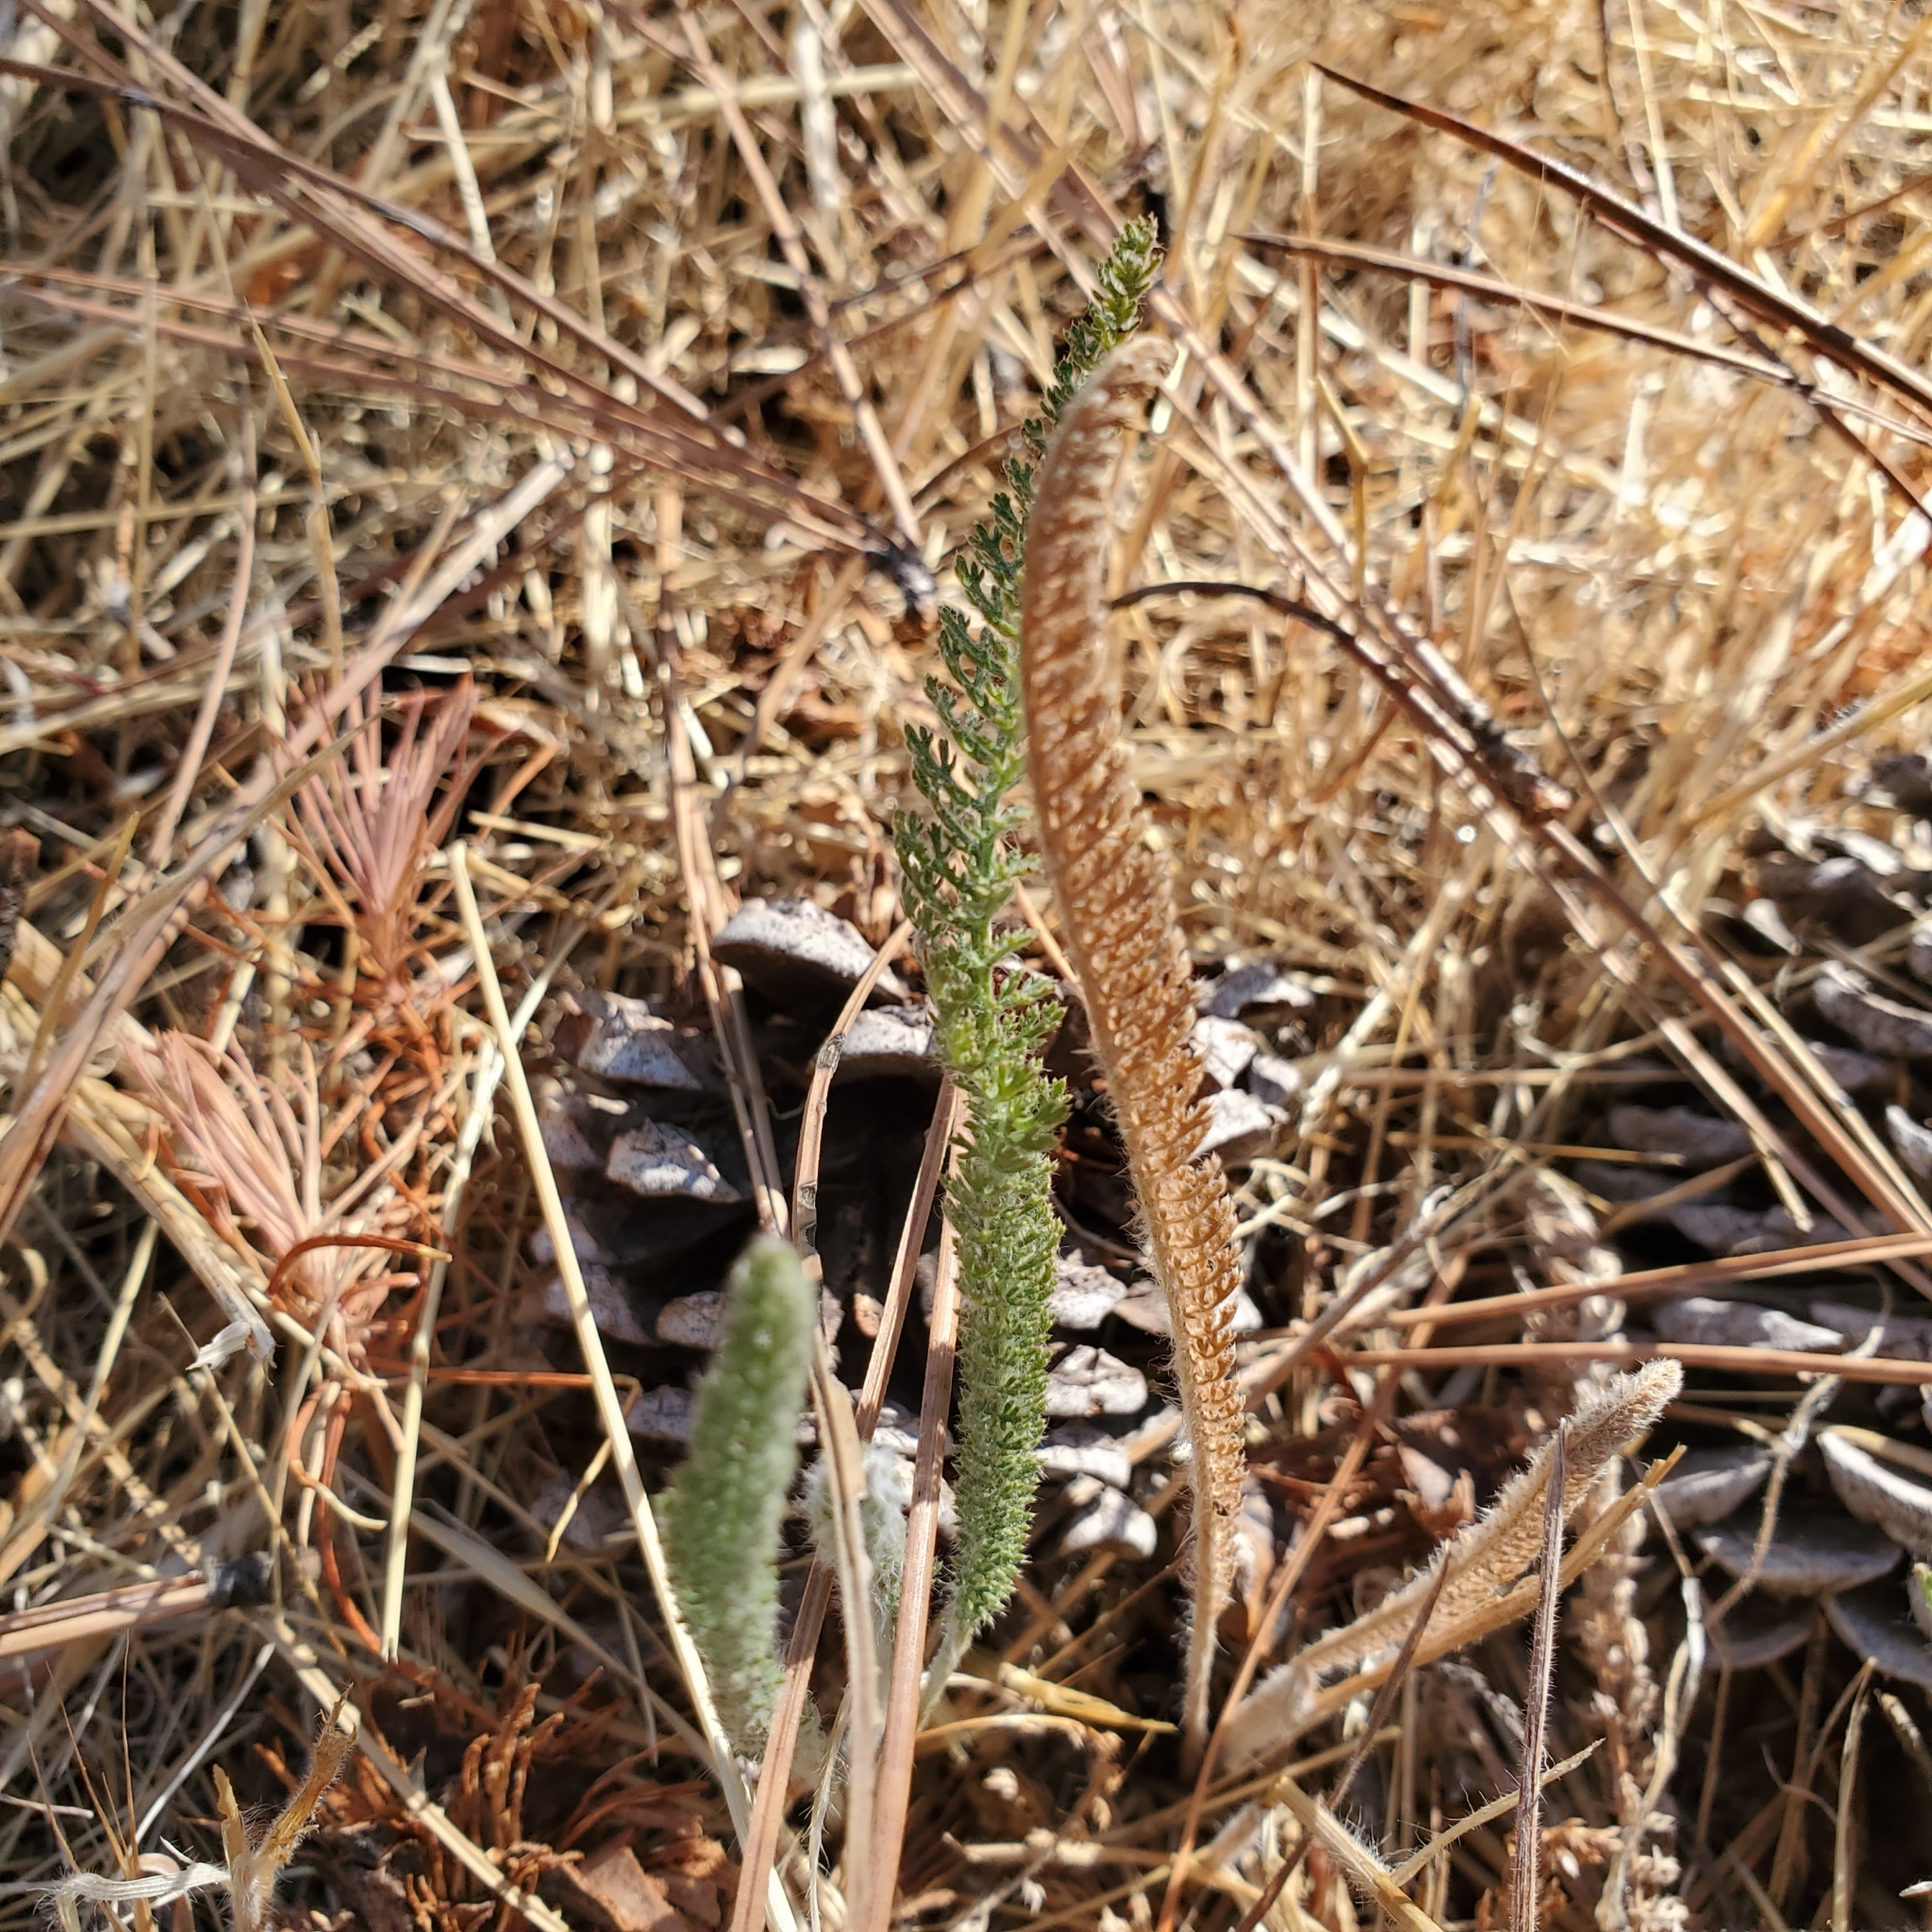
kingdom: Plantae
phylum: Tracheophyta
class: Magnoliopsida
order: Asterales
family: Asteraceae
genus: Achillea
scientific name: Achillea millefolium
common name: Yarrow
